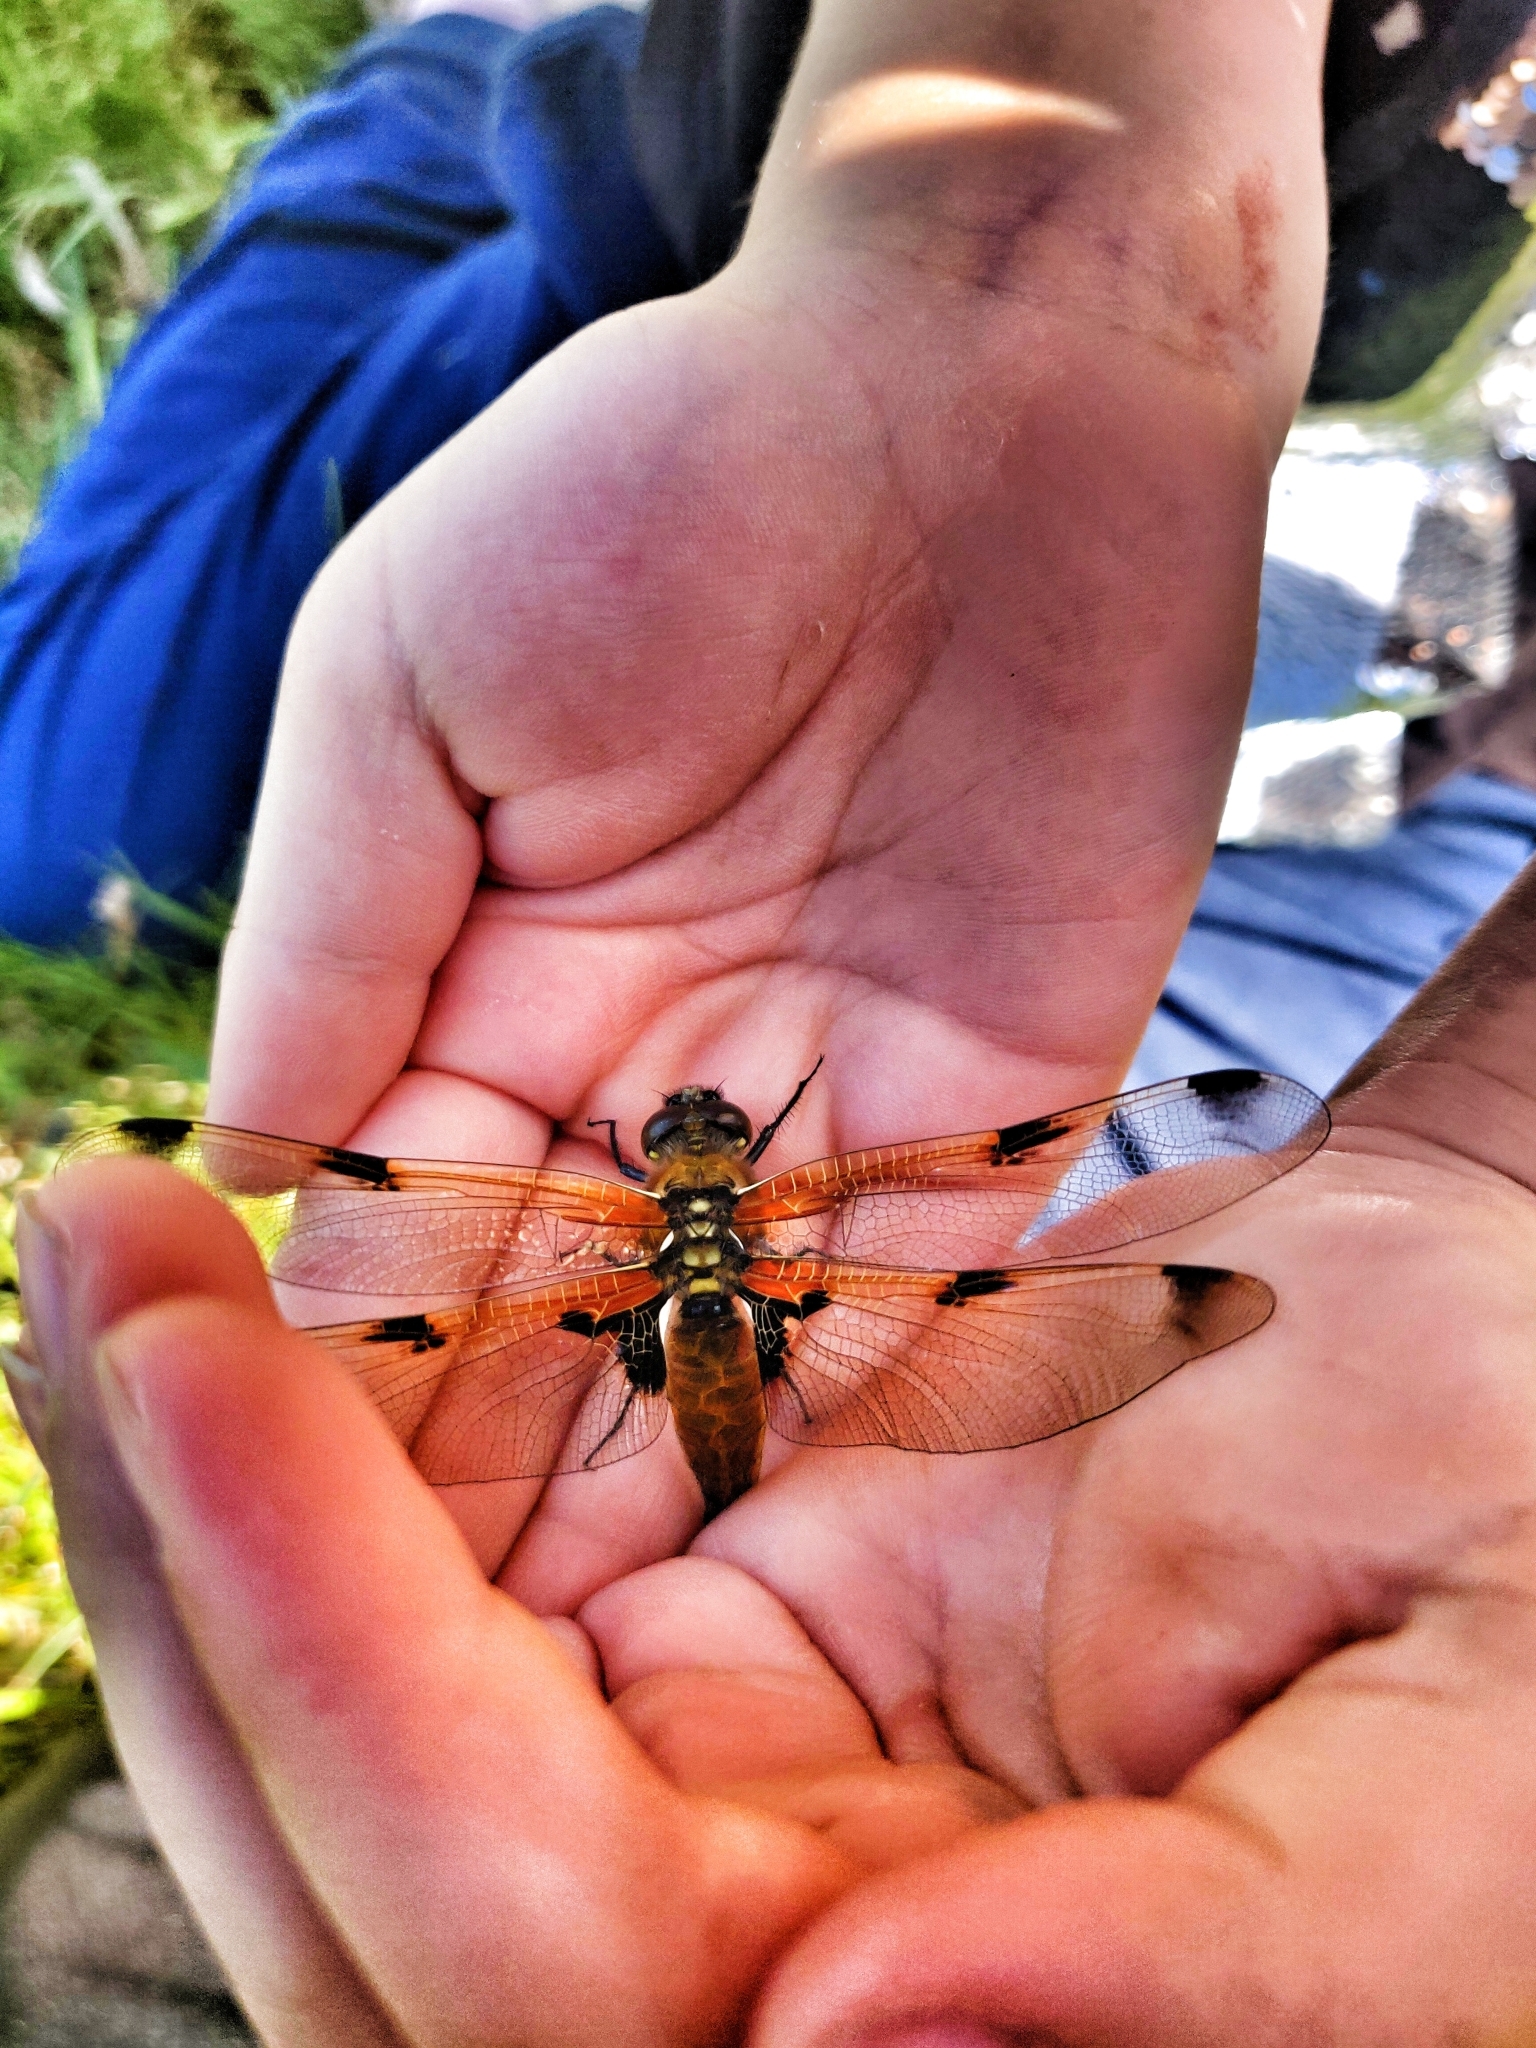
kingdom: Animalia
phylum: Arthropoda
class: Insecta
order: Odonata
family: Libellulidae
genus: Libellula
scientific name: Libellula quadrimaculata
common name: Four-spotted chaser
